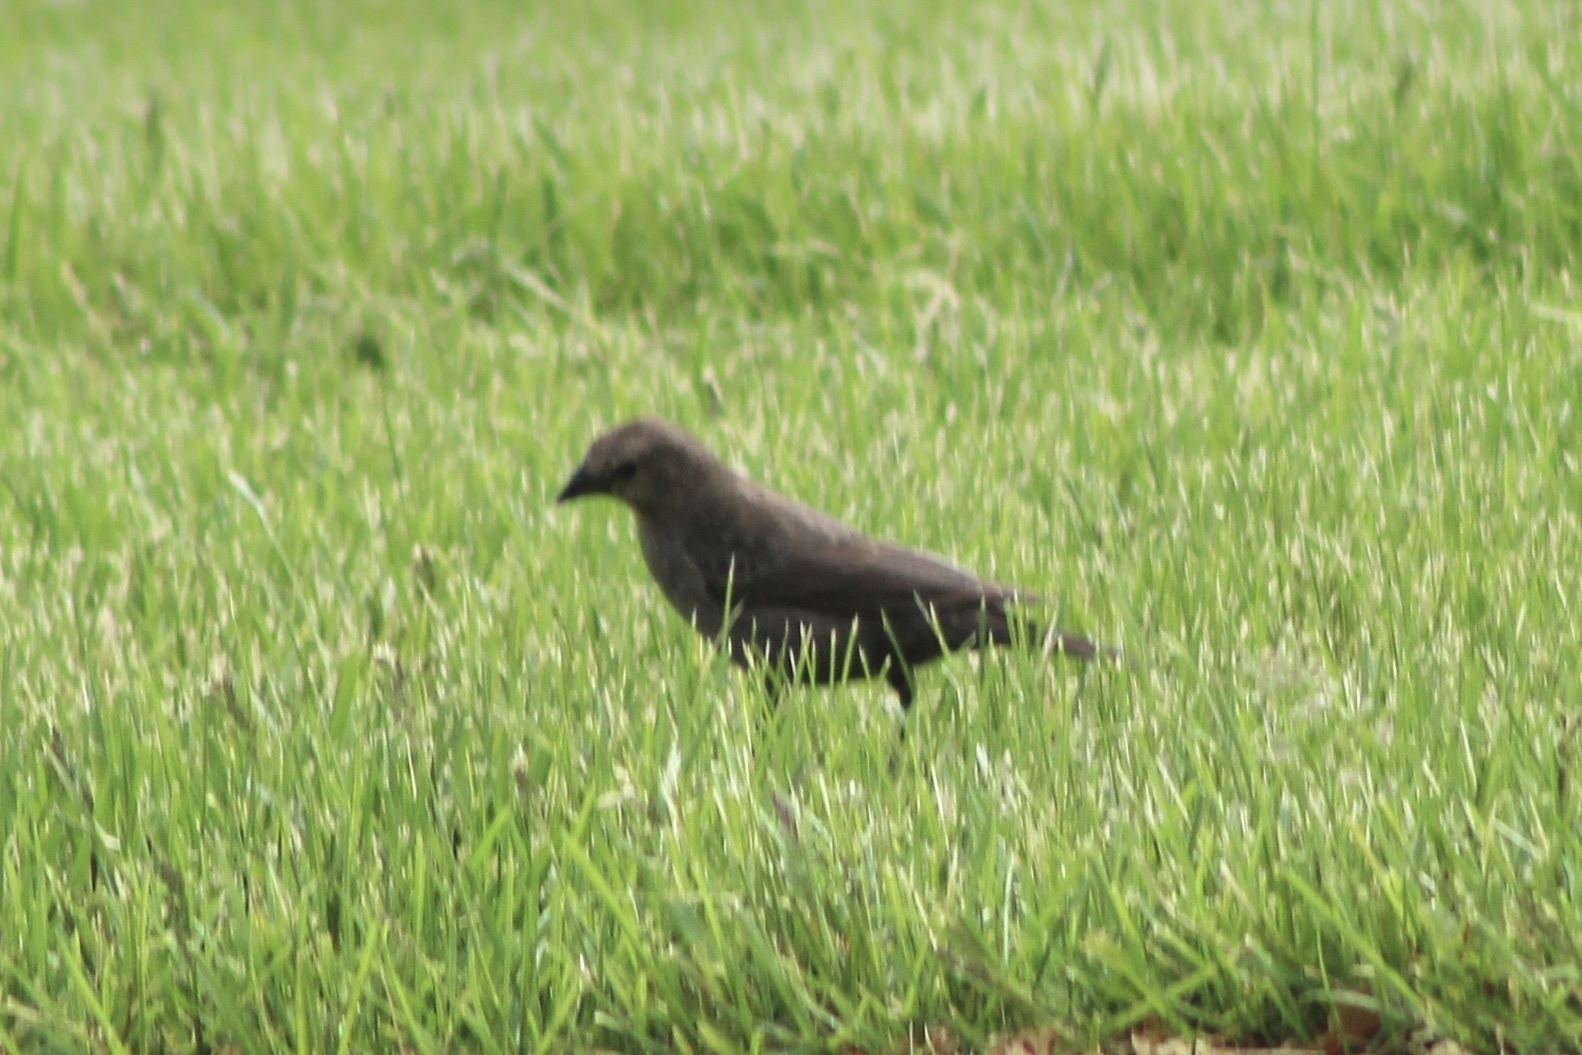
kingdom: Animalia
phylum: Chordata
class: Aves
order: Passeriformes
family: Icteridae
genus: Molothrus
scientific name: Molothrus ater
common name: Brown-headed cowbird
